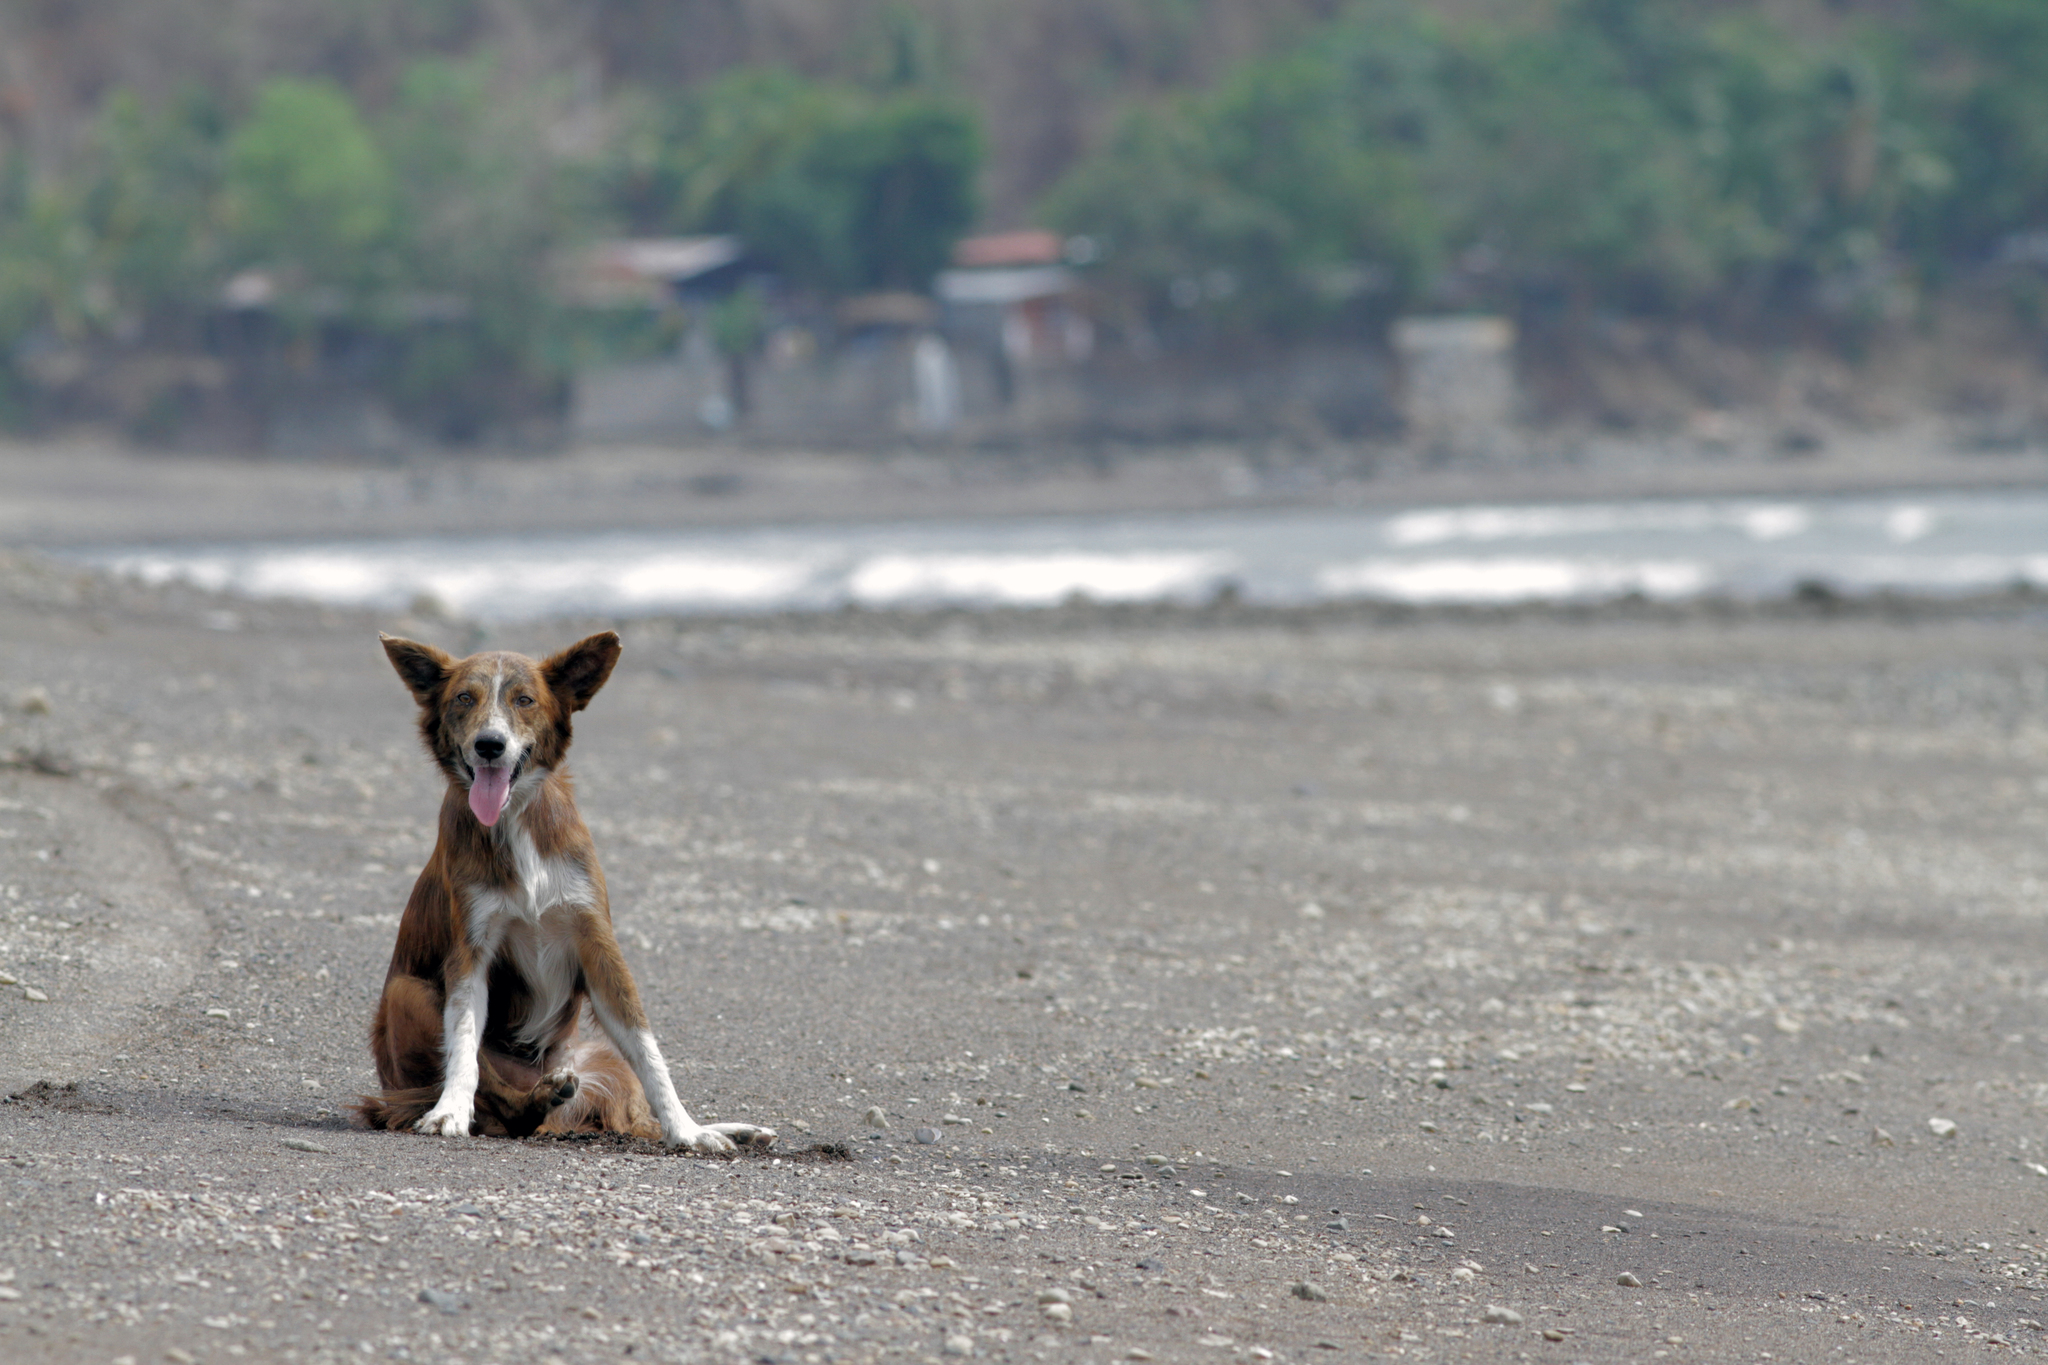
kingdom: Animalia
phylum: Chordata
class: Mammalia
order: Carnivora
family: Canidae
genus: Canis
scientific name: Canis lupus
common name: Gray wolf
